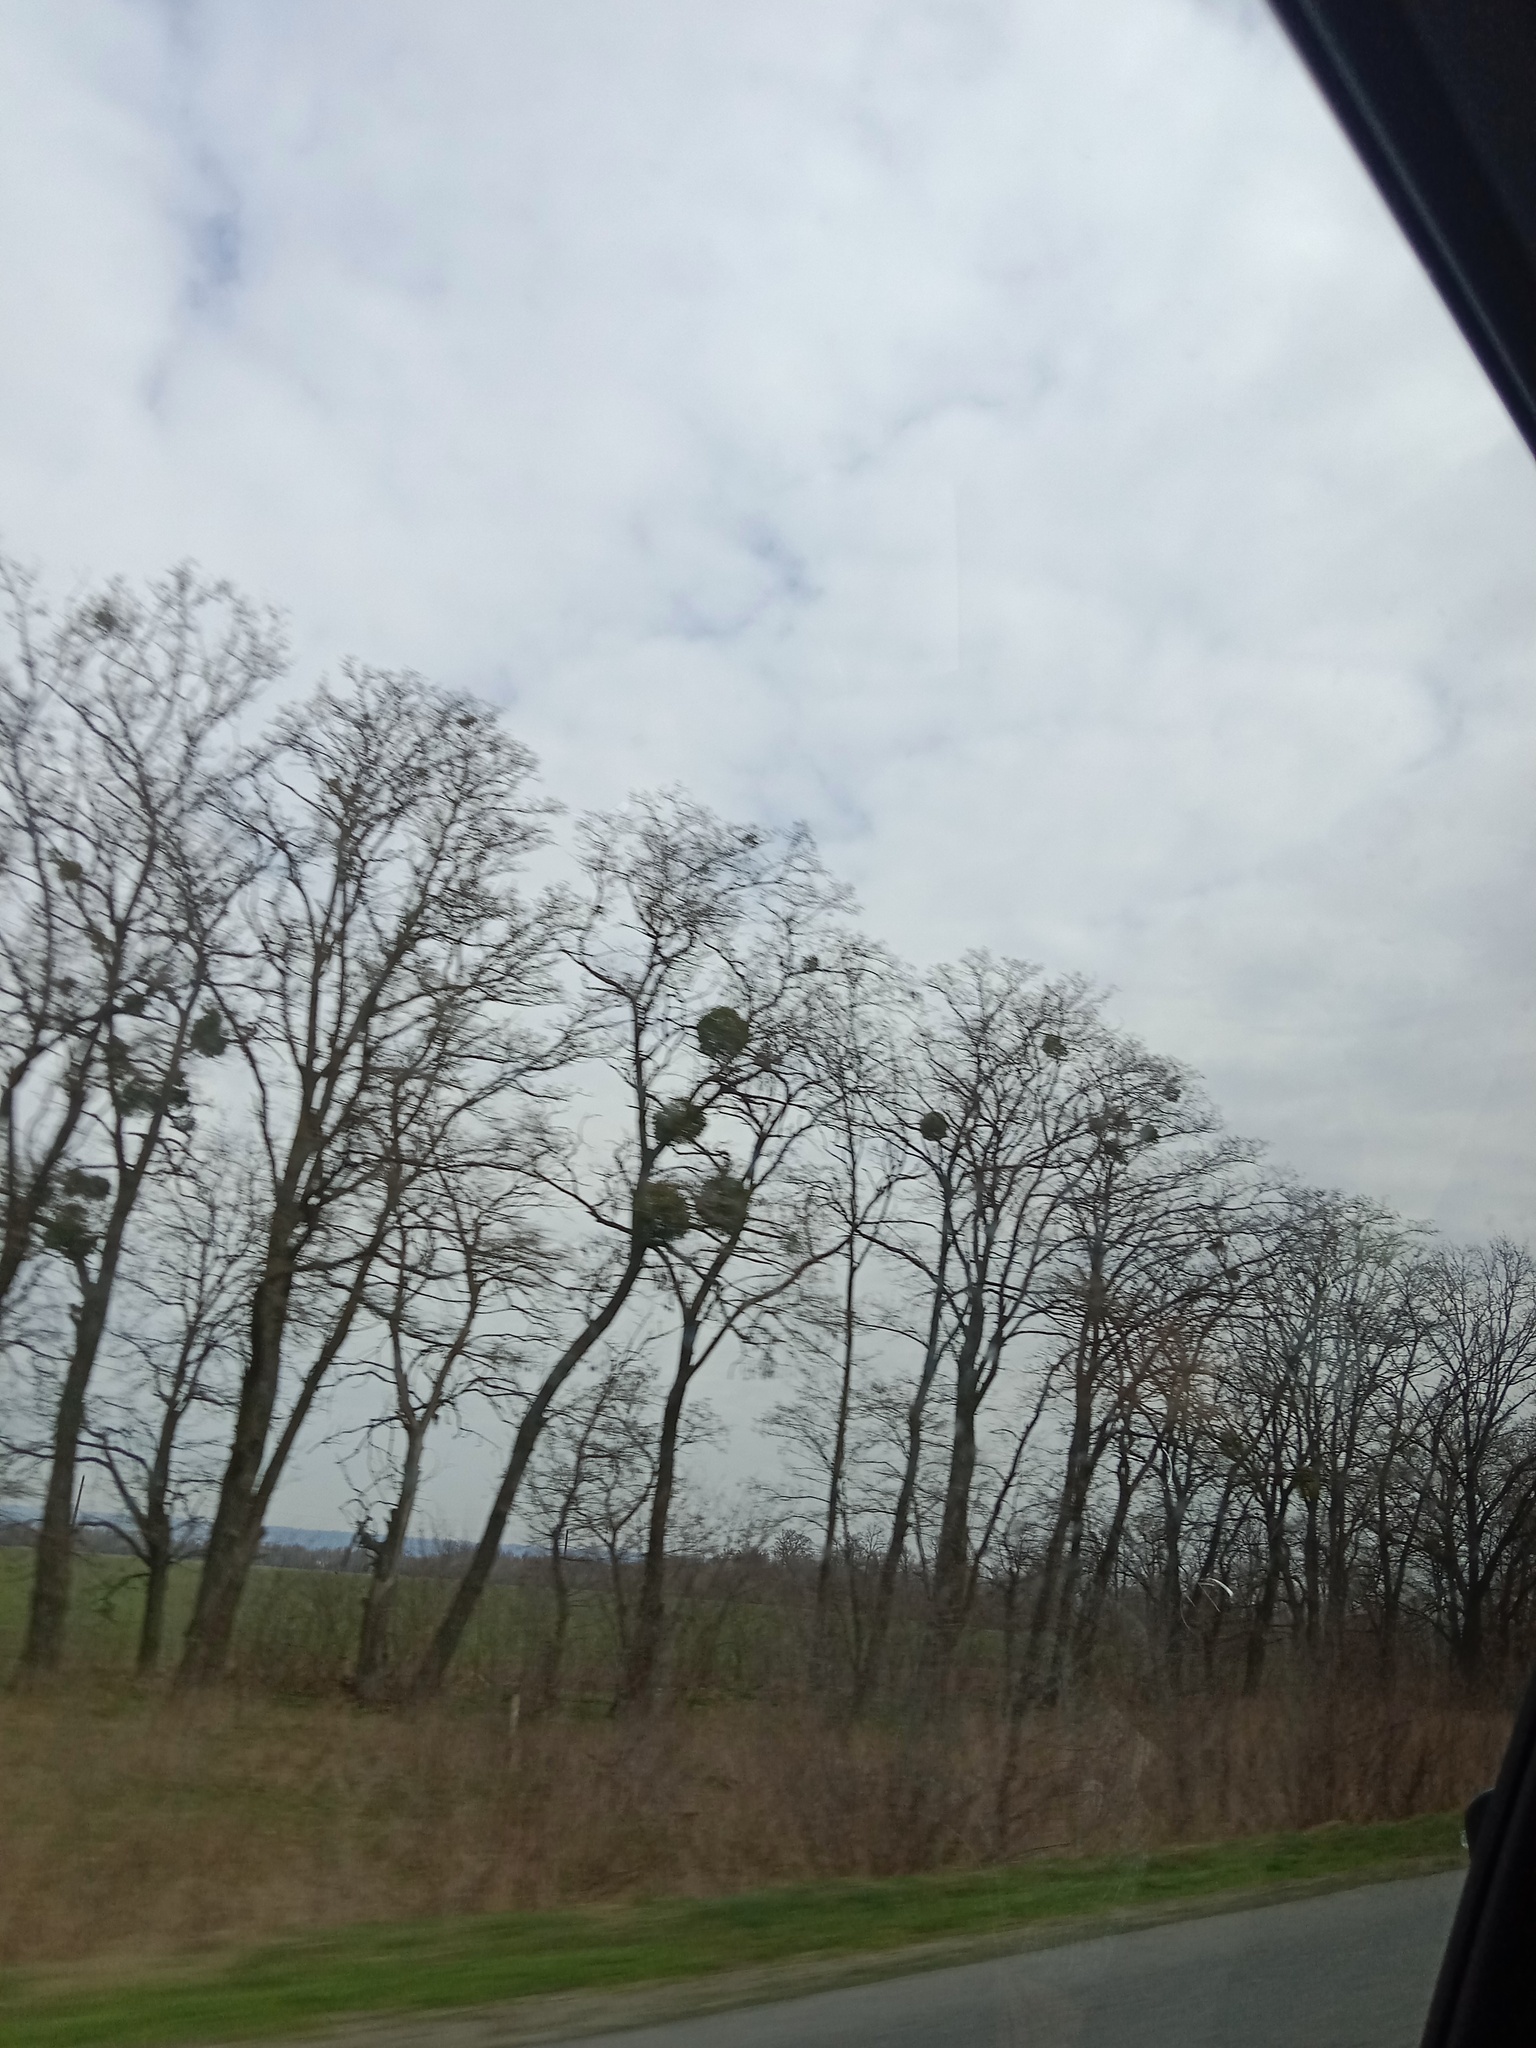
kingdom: Plantae
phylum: Tracheophyta
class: Magnoliopsida
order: Santalales
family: Viscaceae
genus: Viscum
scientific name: Viscum album
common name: Mistletoe
